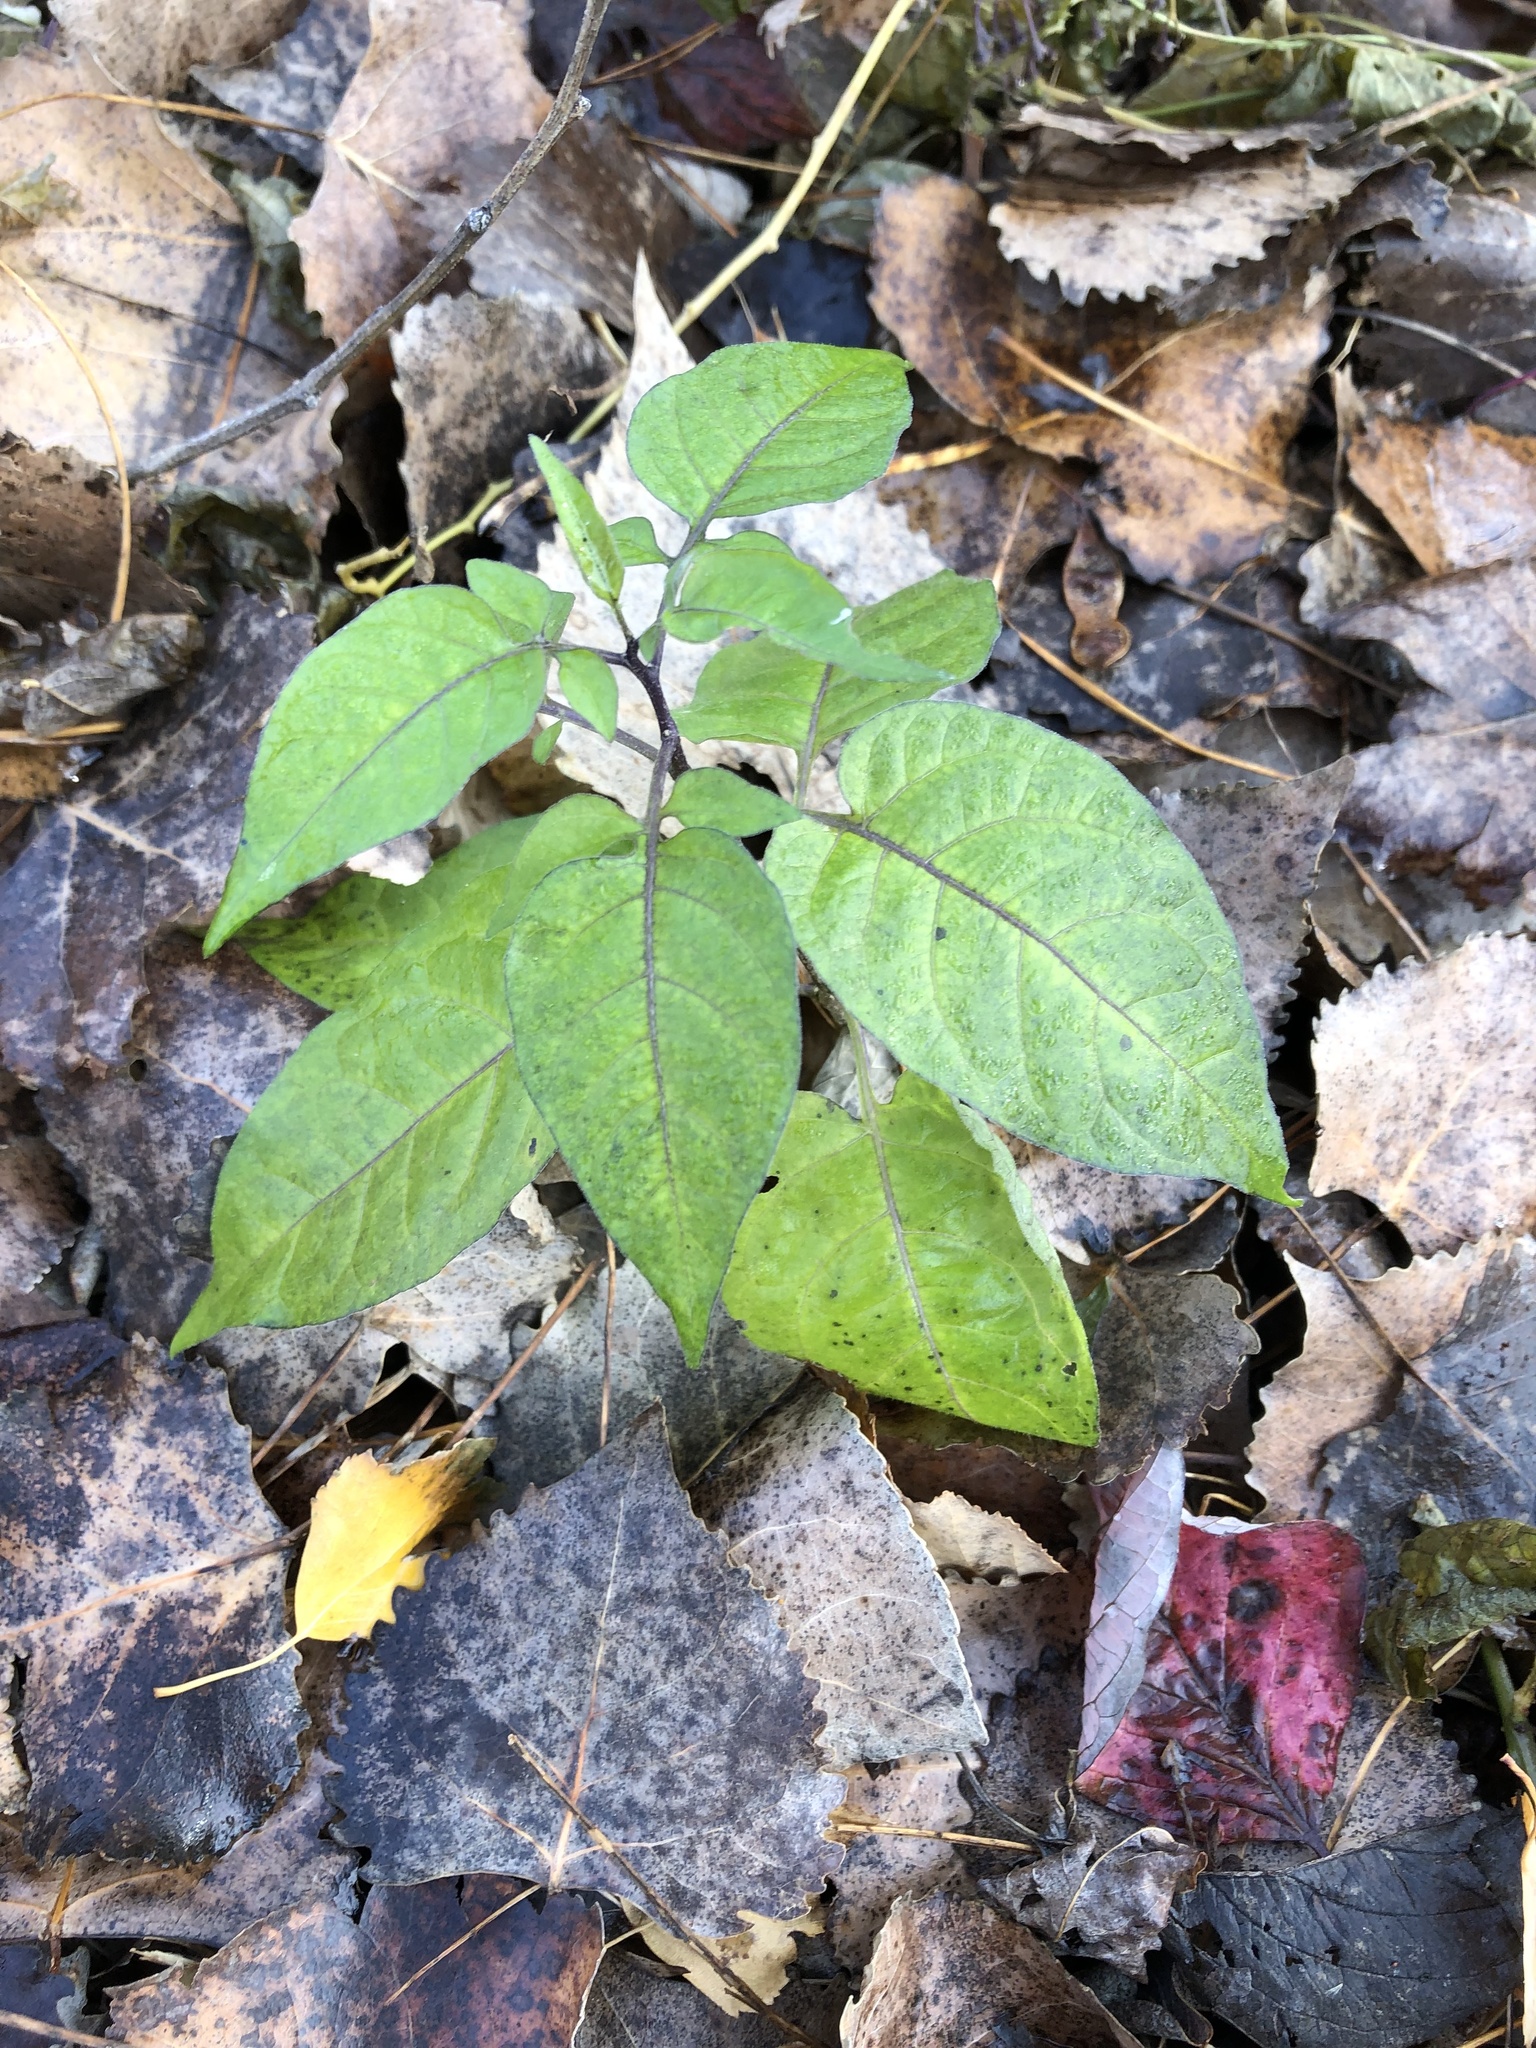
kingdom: Plantae
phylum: Tracheophyta
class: Magnoliopsida
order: Solanales
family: Solanaceae
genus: Solanum
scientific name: Solanum dulcamara
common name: Climbing nightshade
